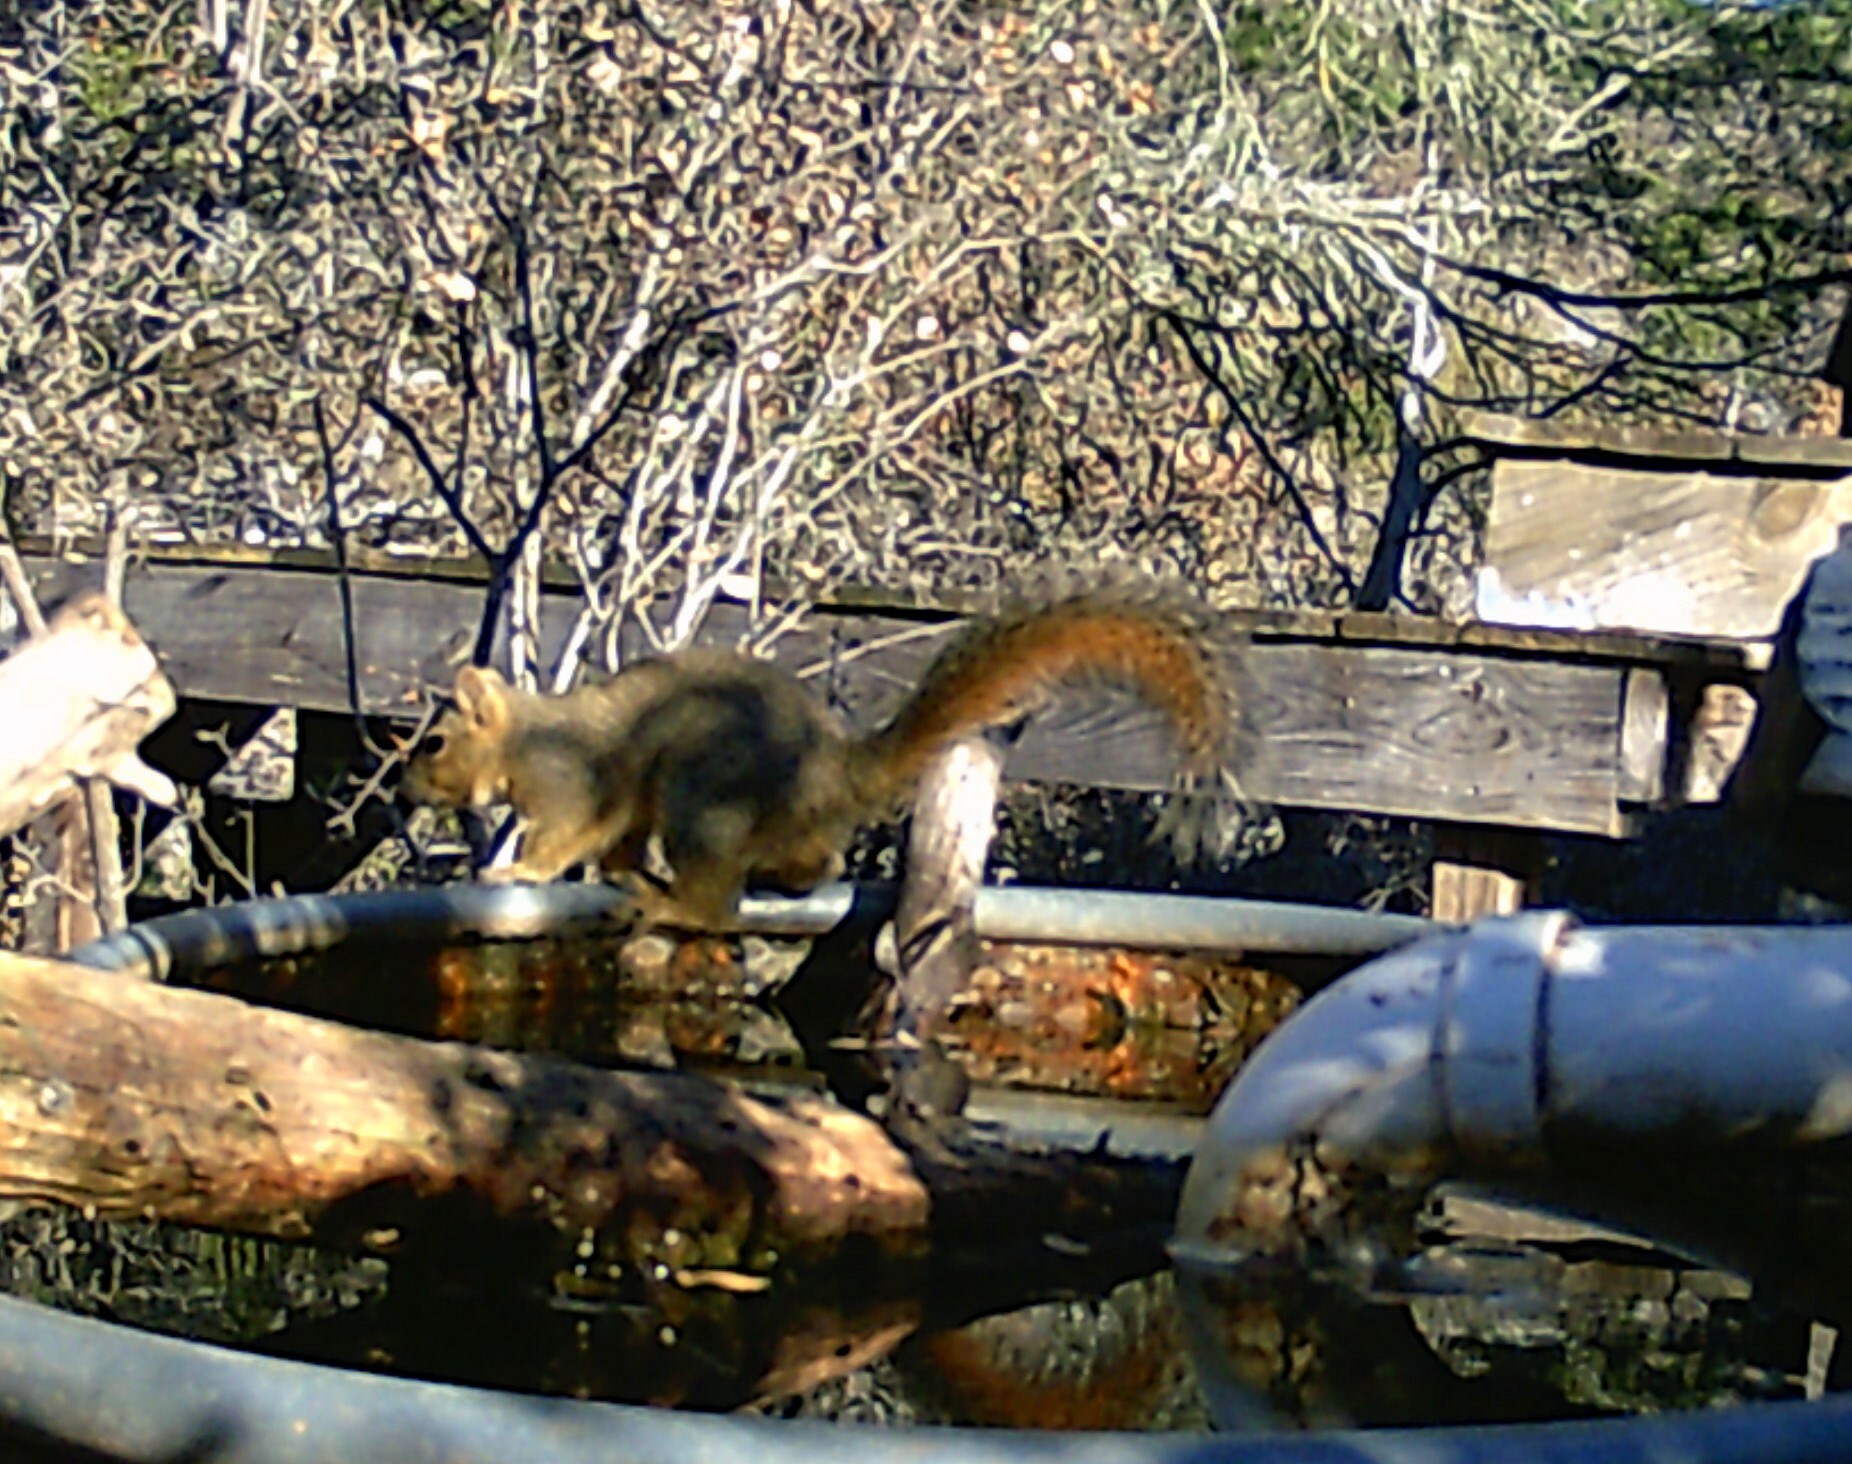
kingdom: Animalia
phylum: Chordata
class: Mammalia
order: Rodentia
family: Sciuridae
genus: Sciurus
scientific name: Sciurus niger
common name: Fox squirrel
